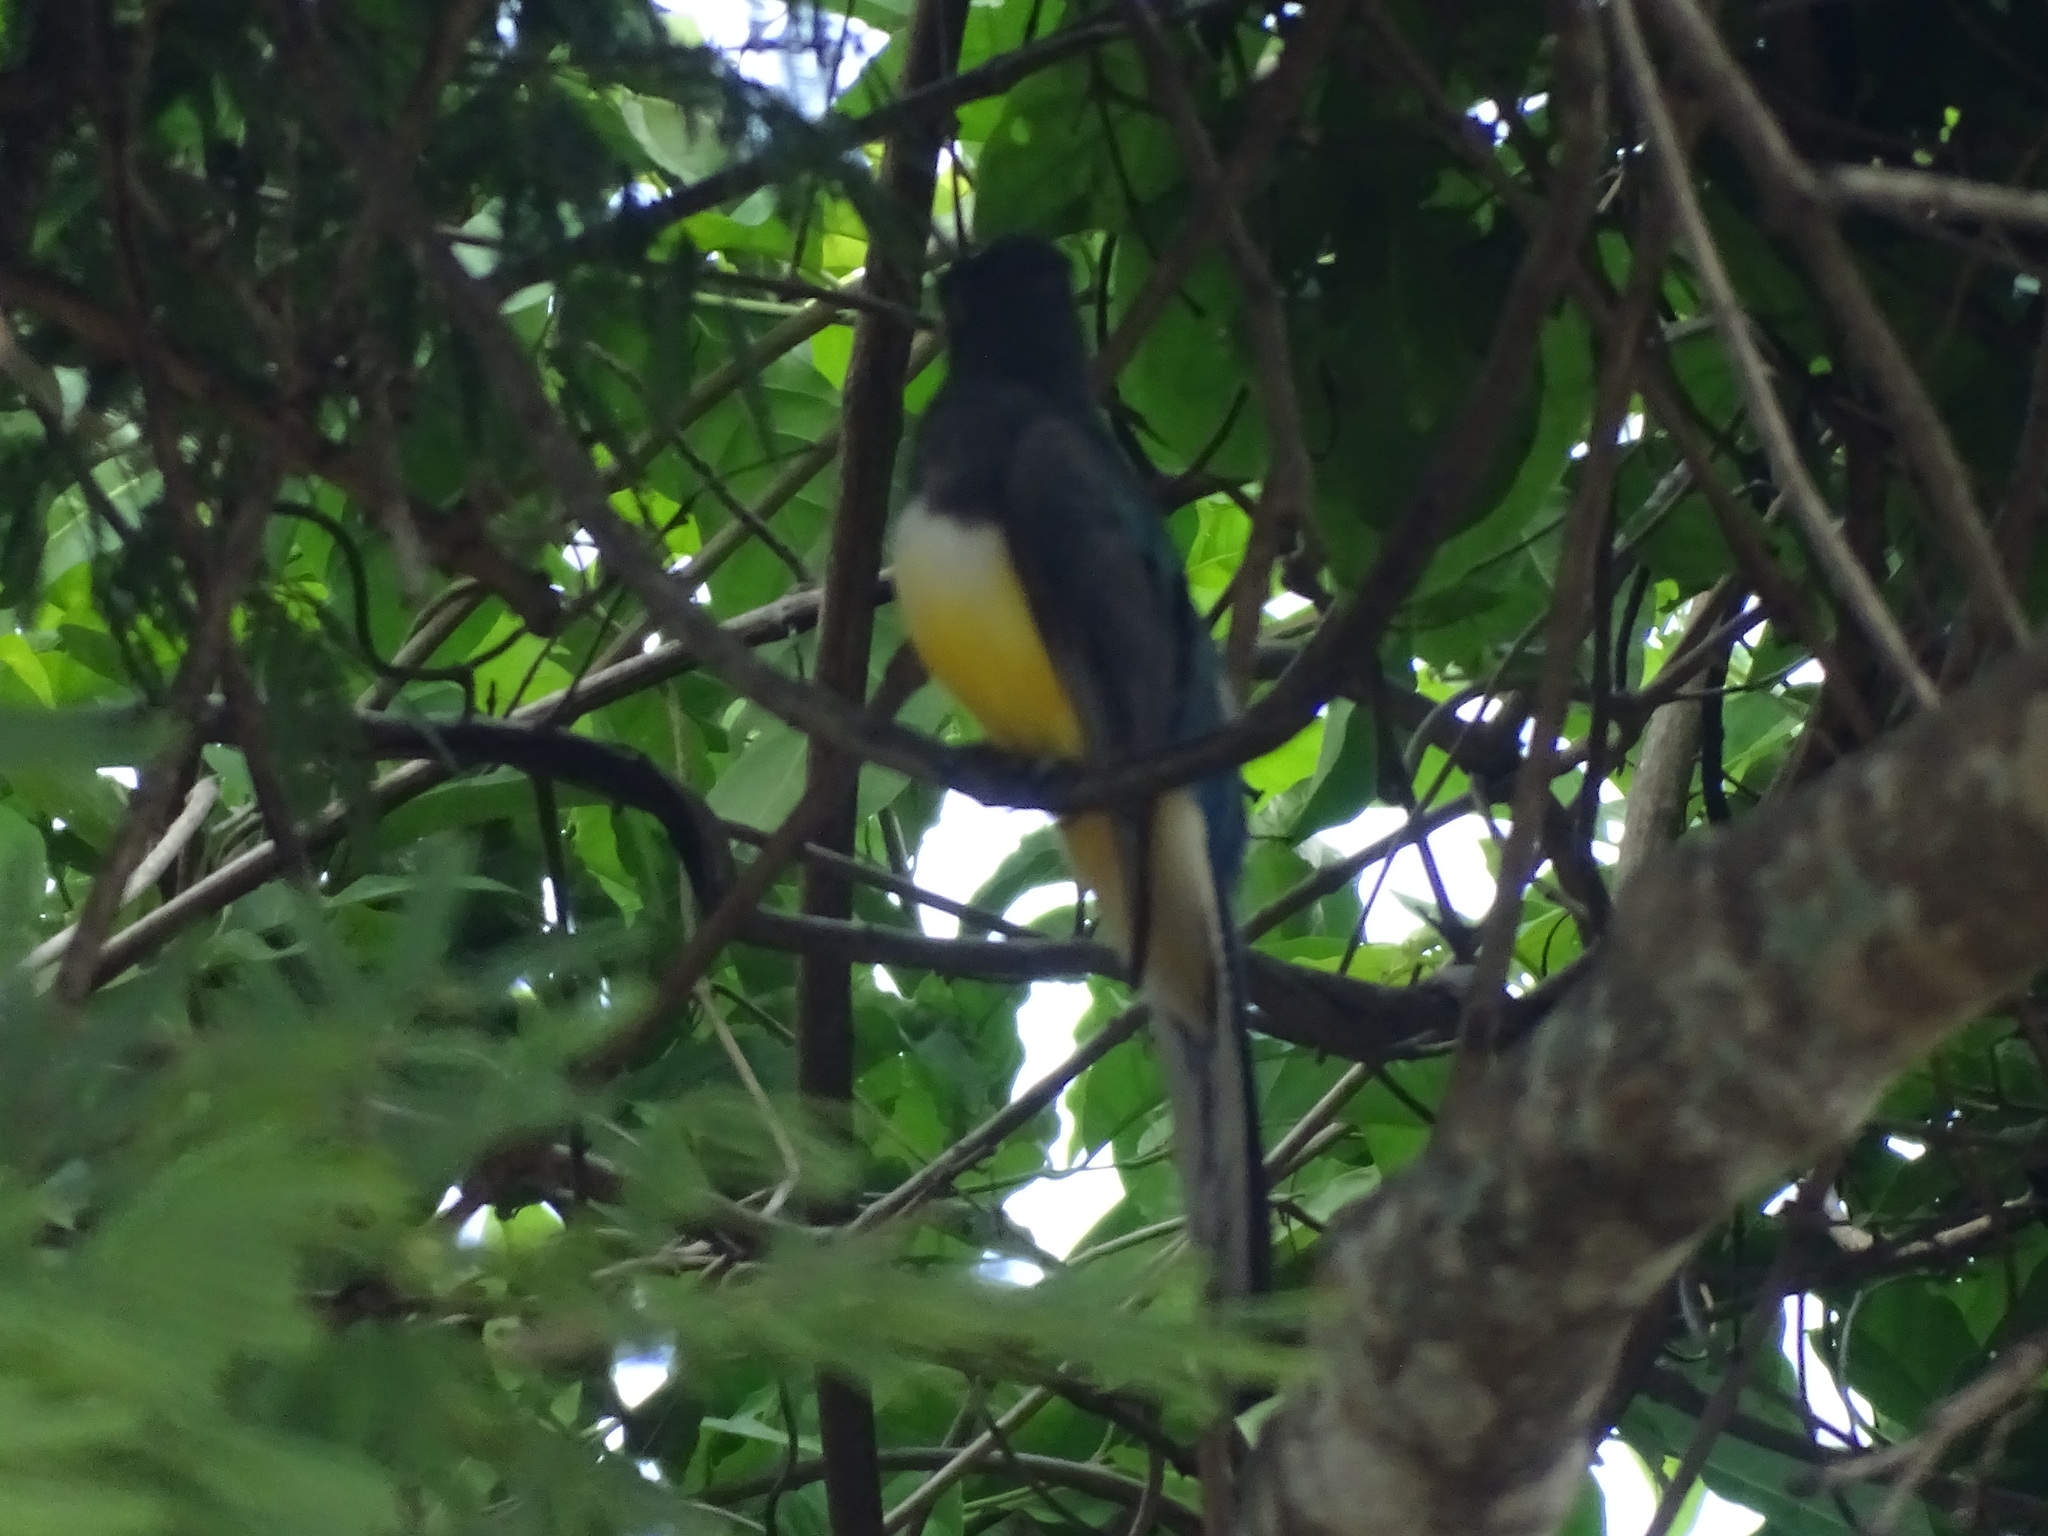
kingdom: Animalia
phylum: Chordata
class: Aves
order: Trogoniformes
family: Trogonidae
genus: Trogon
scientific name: Trogon citreolus
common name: Citreoline trogon
